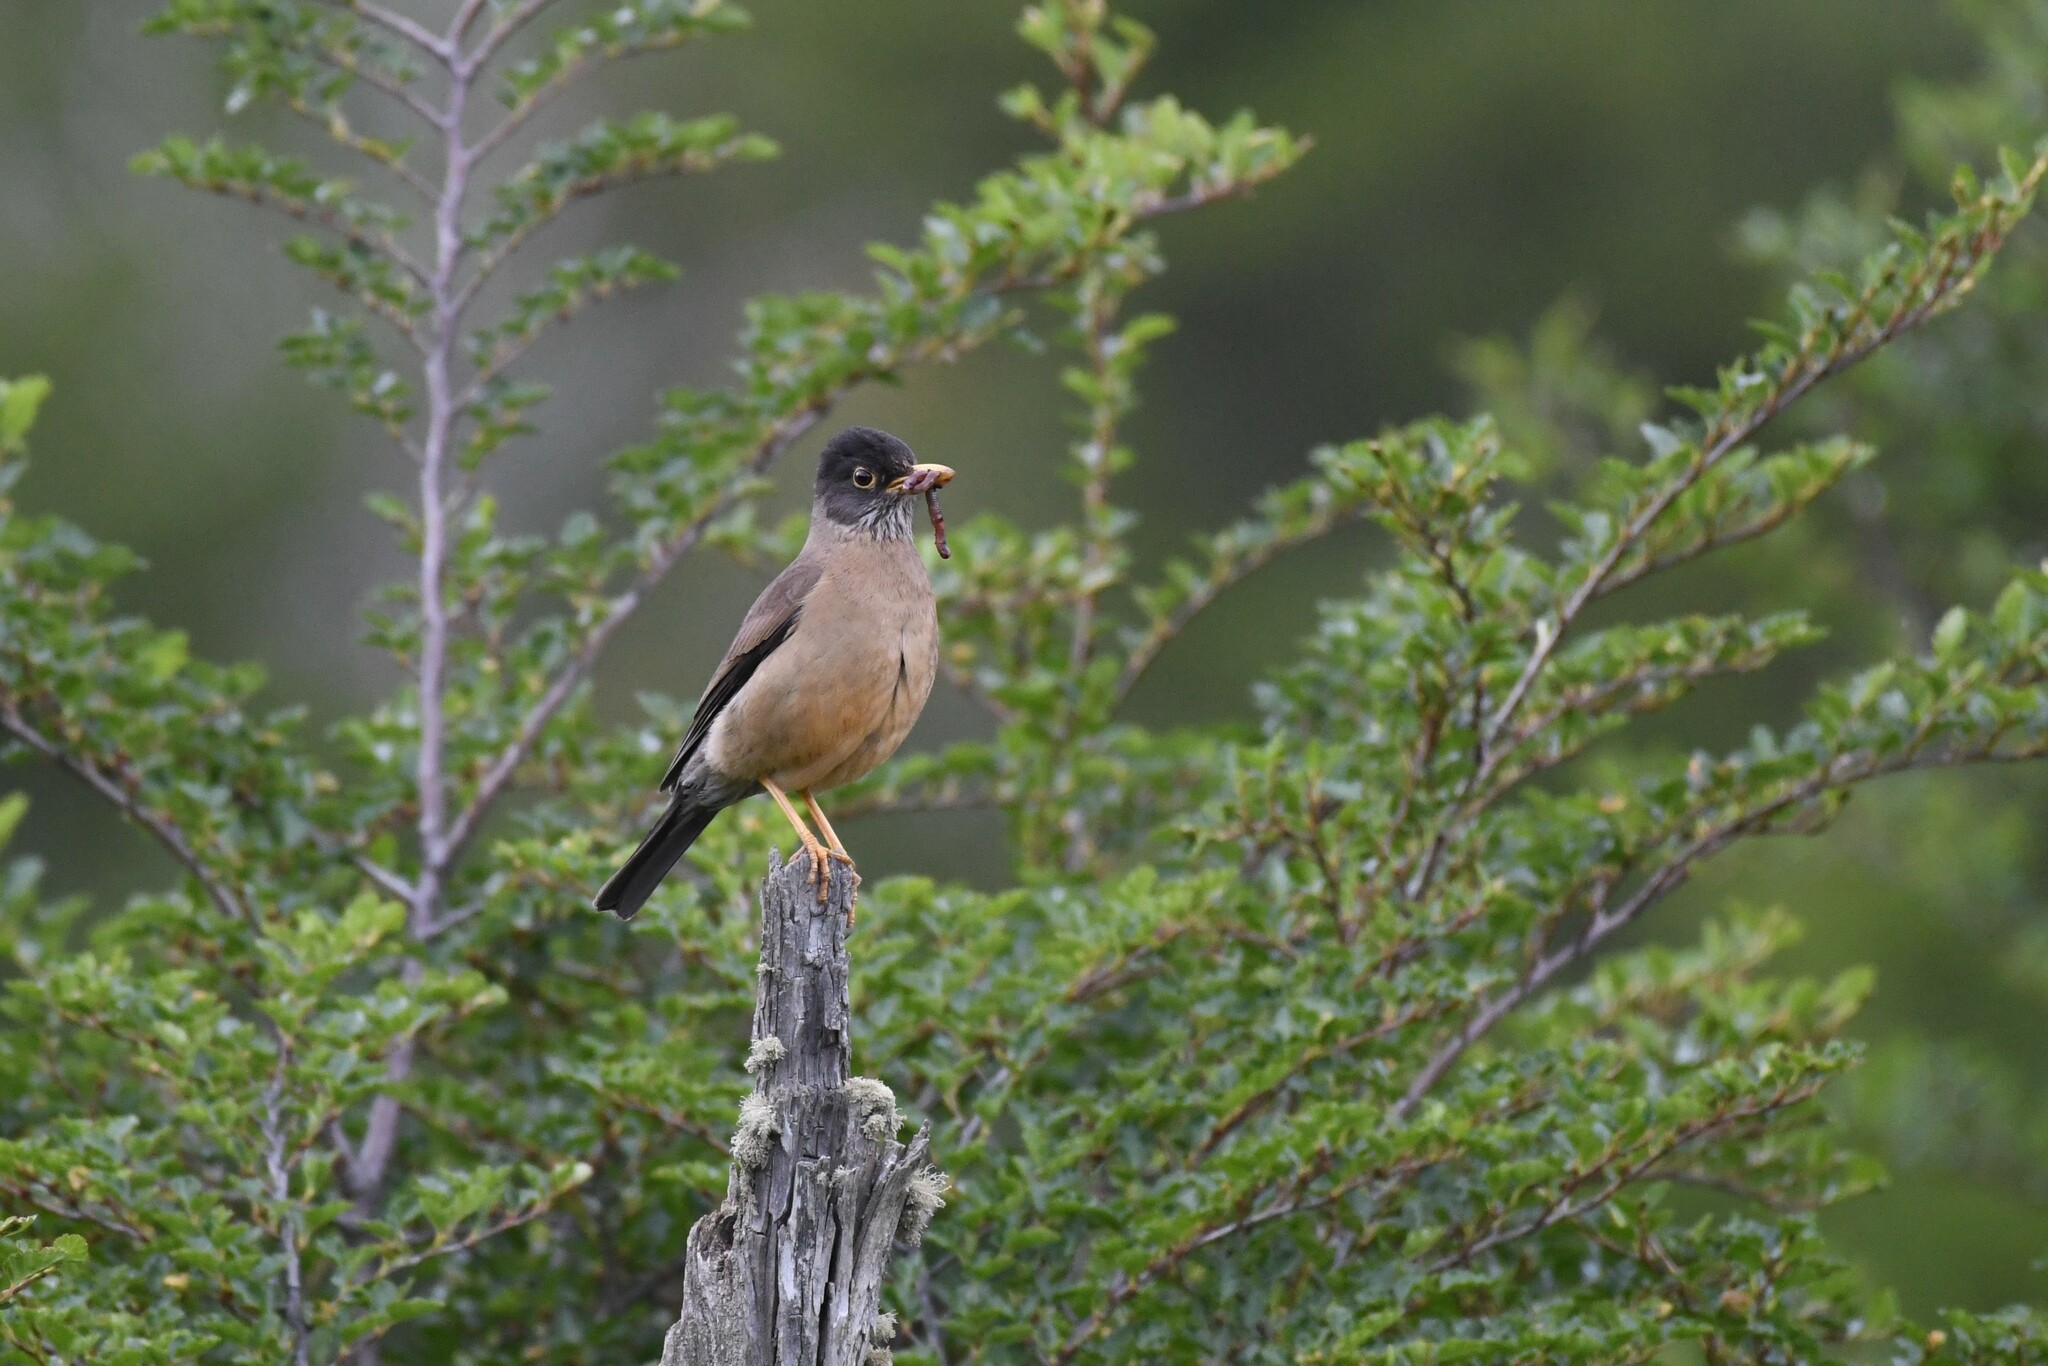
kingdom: Animalia
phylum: Chordata
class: Aves
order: Passeriformes
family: Turdidae
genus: Turdus
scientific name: Turdus falcklandii
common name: Austral thrush
